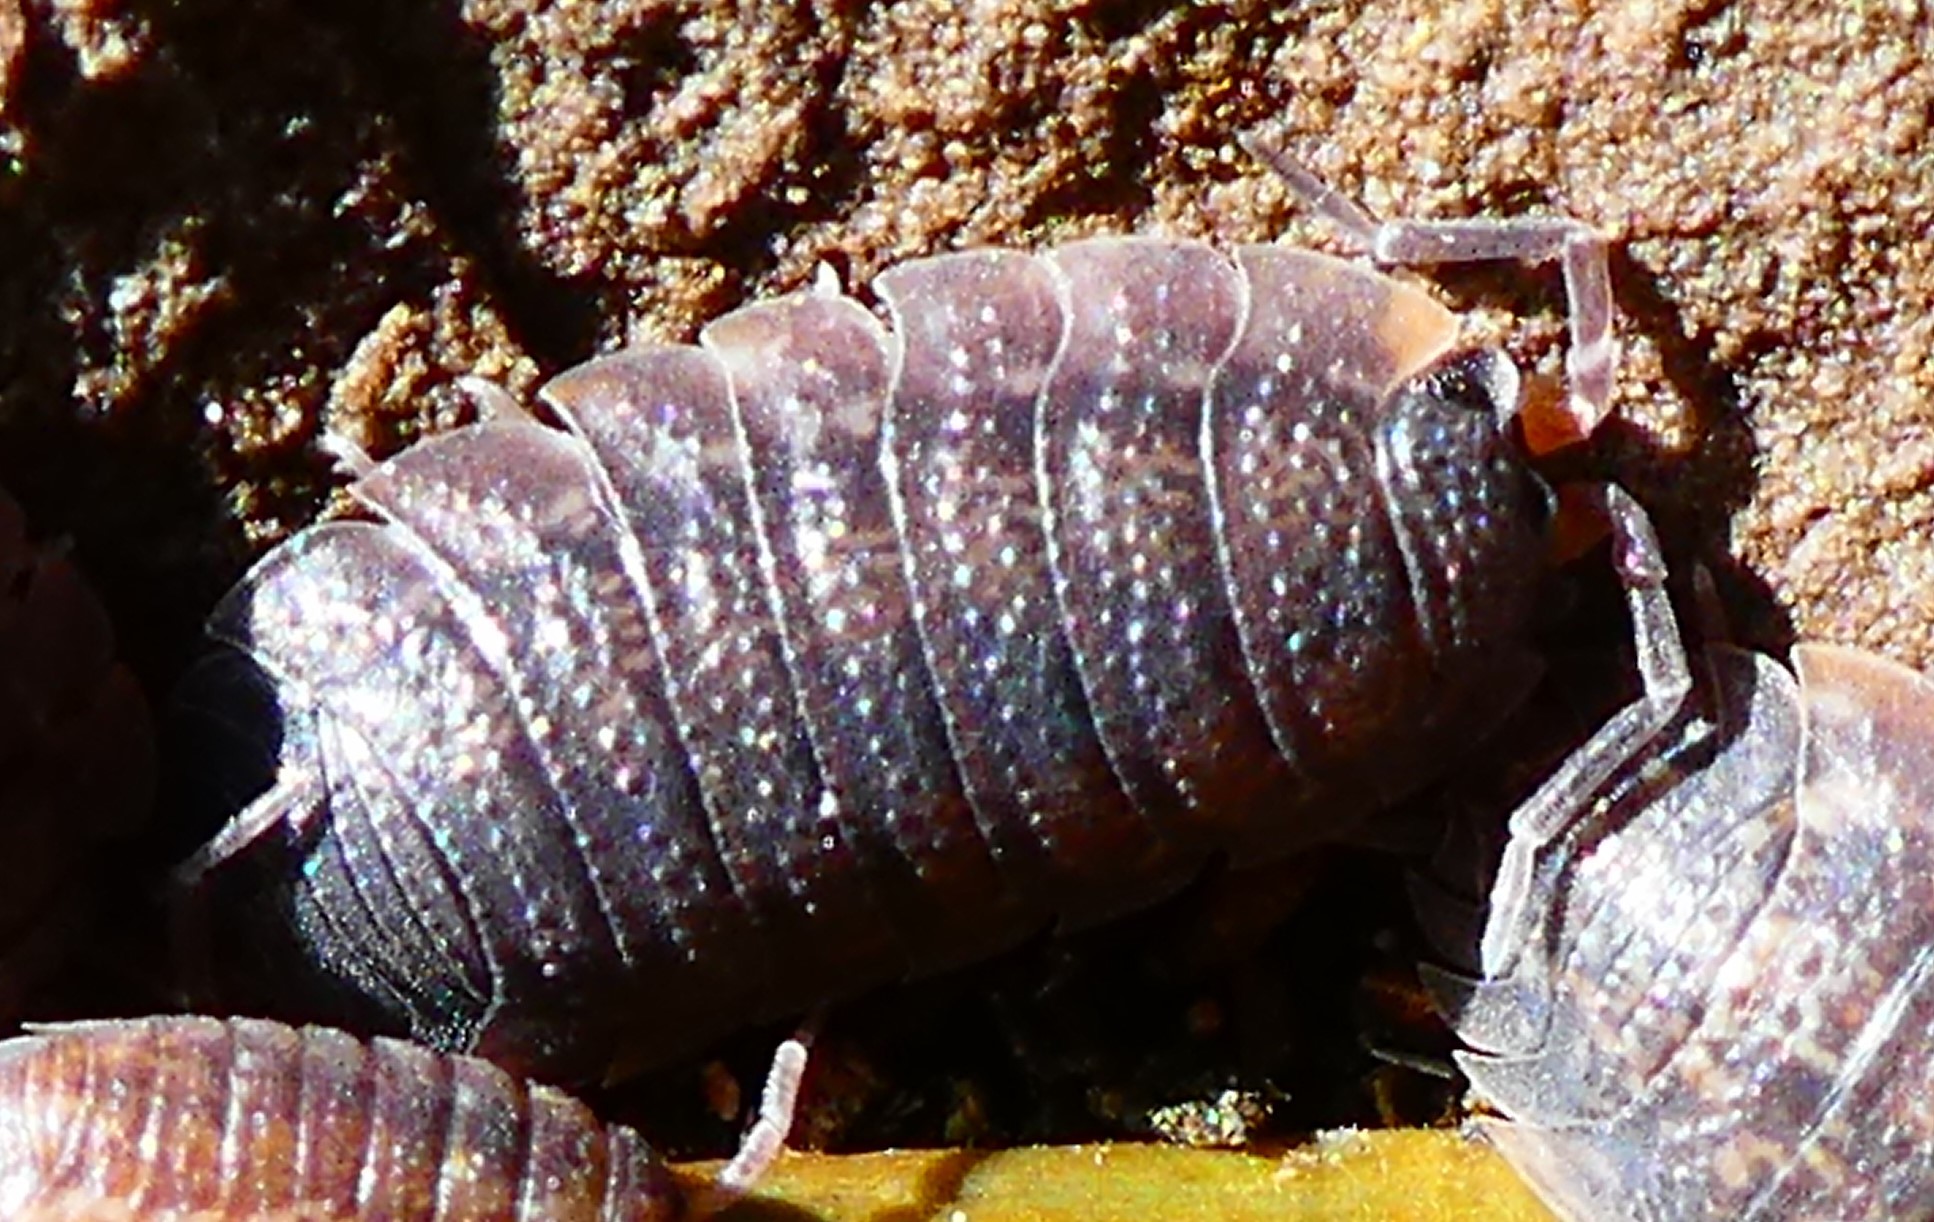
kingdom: Animalia
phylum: Arthropoda
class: Malacostraca
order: Isopoda
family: Porcellionidae
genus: Porcellio
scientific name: Porcellio scaber
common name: Common rough woodlouse
